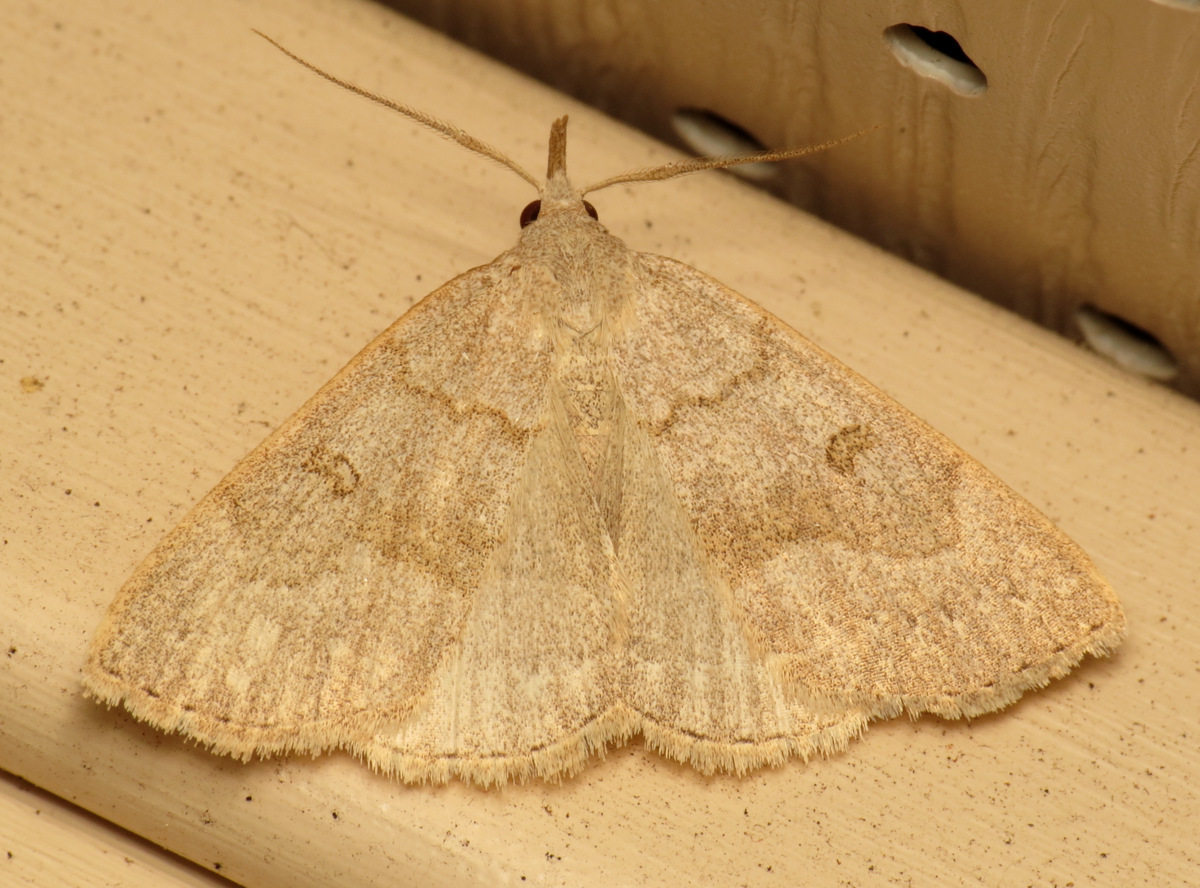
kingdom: Animalia
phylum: Arthropoda
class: Insecta
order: Lepidoptera
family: Erebidae
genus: Macrochilo
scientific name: Macrochilo morbidalis
